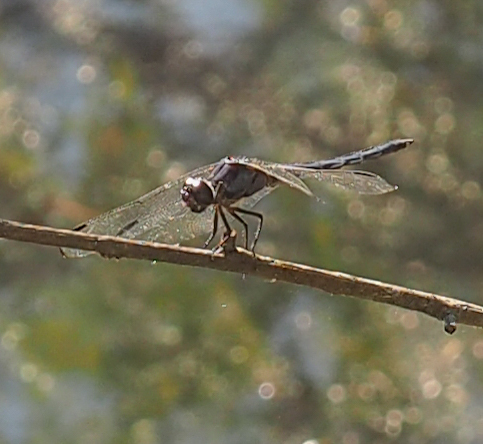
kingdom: Animalia
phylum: Arthropoda
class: Insecta
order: Odonata
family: Libellulidae
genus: Libellula
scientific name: Libellula incesta
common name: Slaty skimmer
